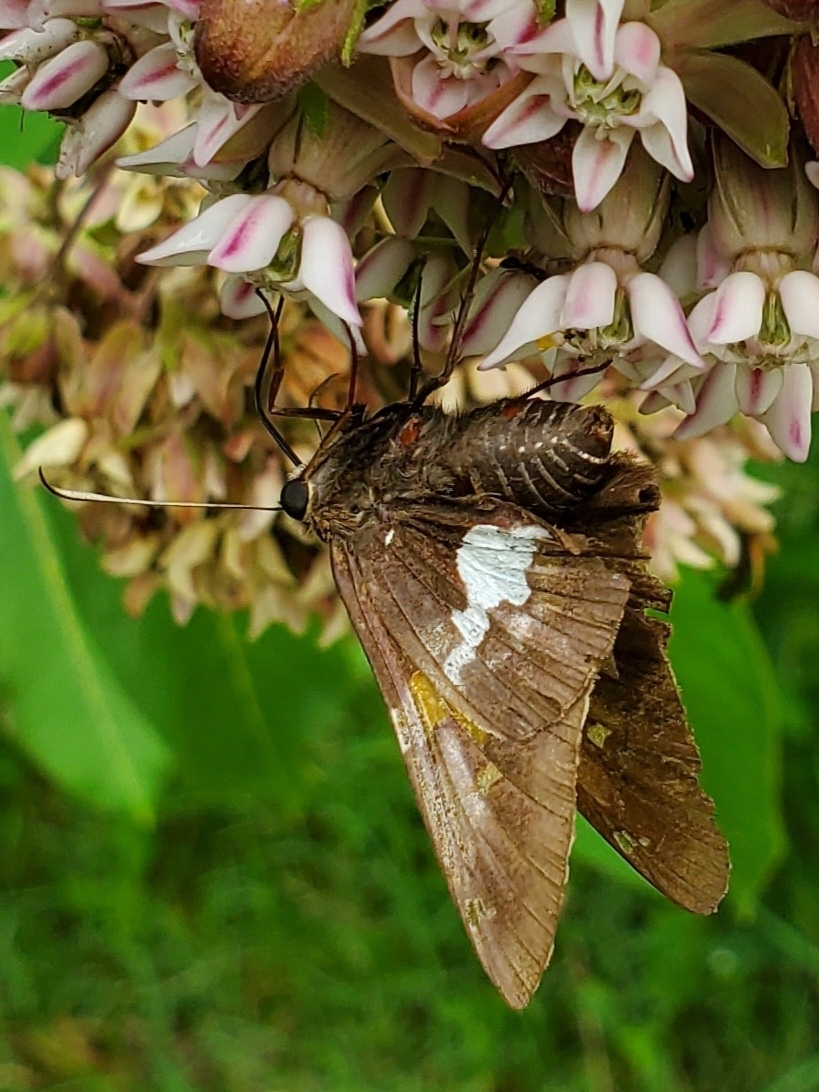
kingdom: Animalia
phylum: Arthropoda
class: Insecta
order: Lepidoptera
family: Hesperiidae
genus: Epargyreus
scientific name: Epargyreus clarus
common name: Silver-spotted skipper
